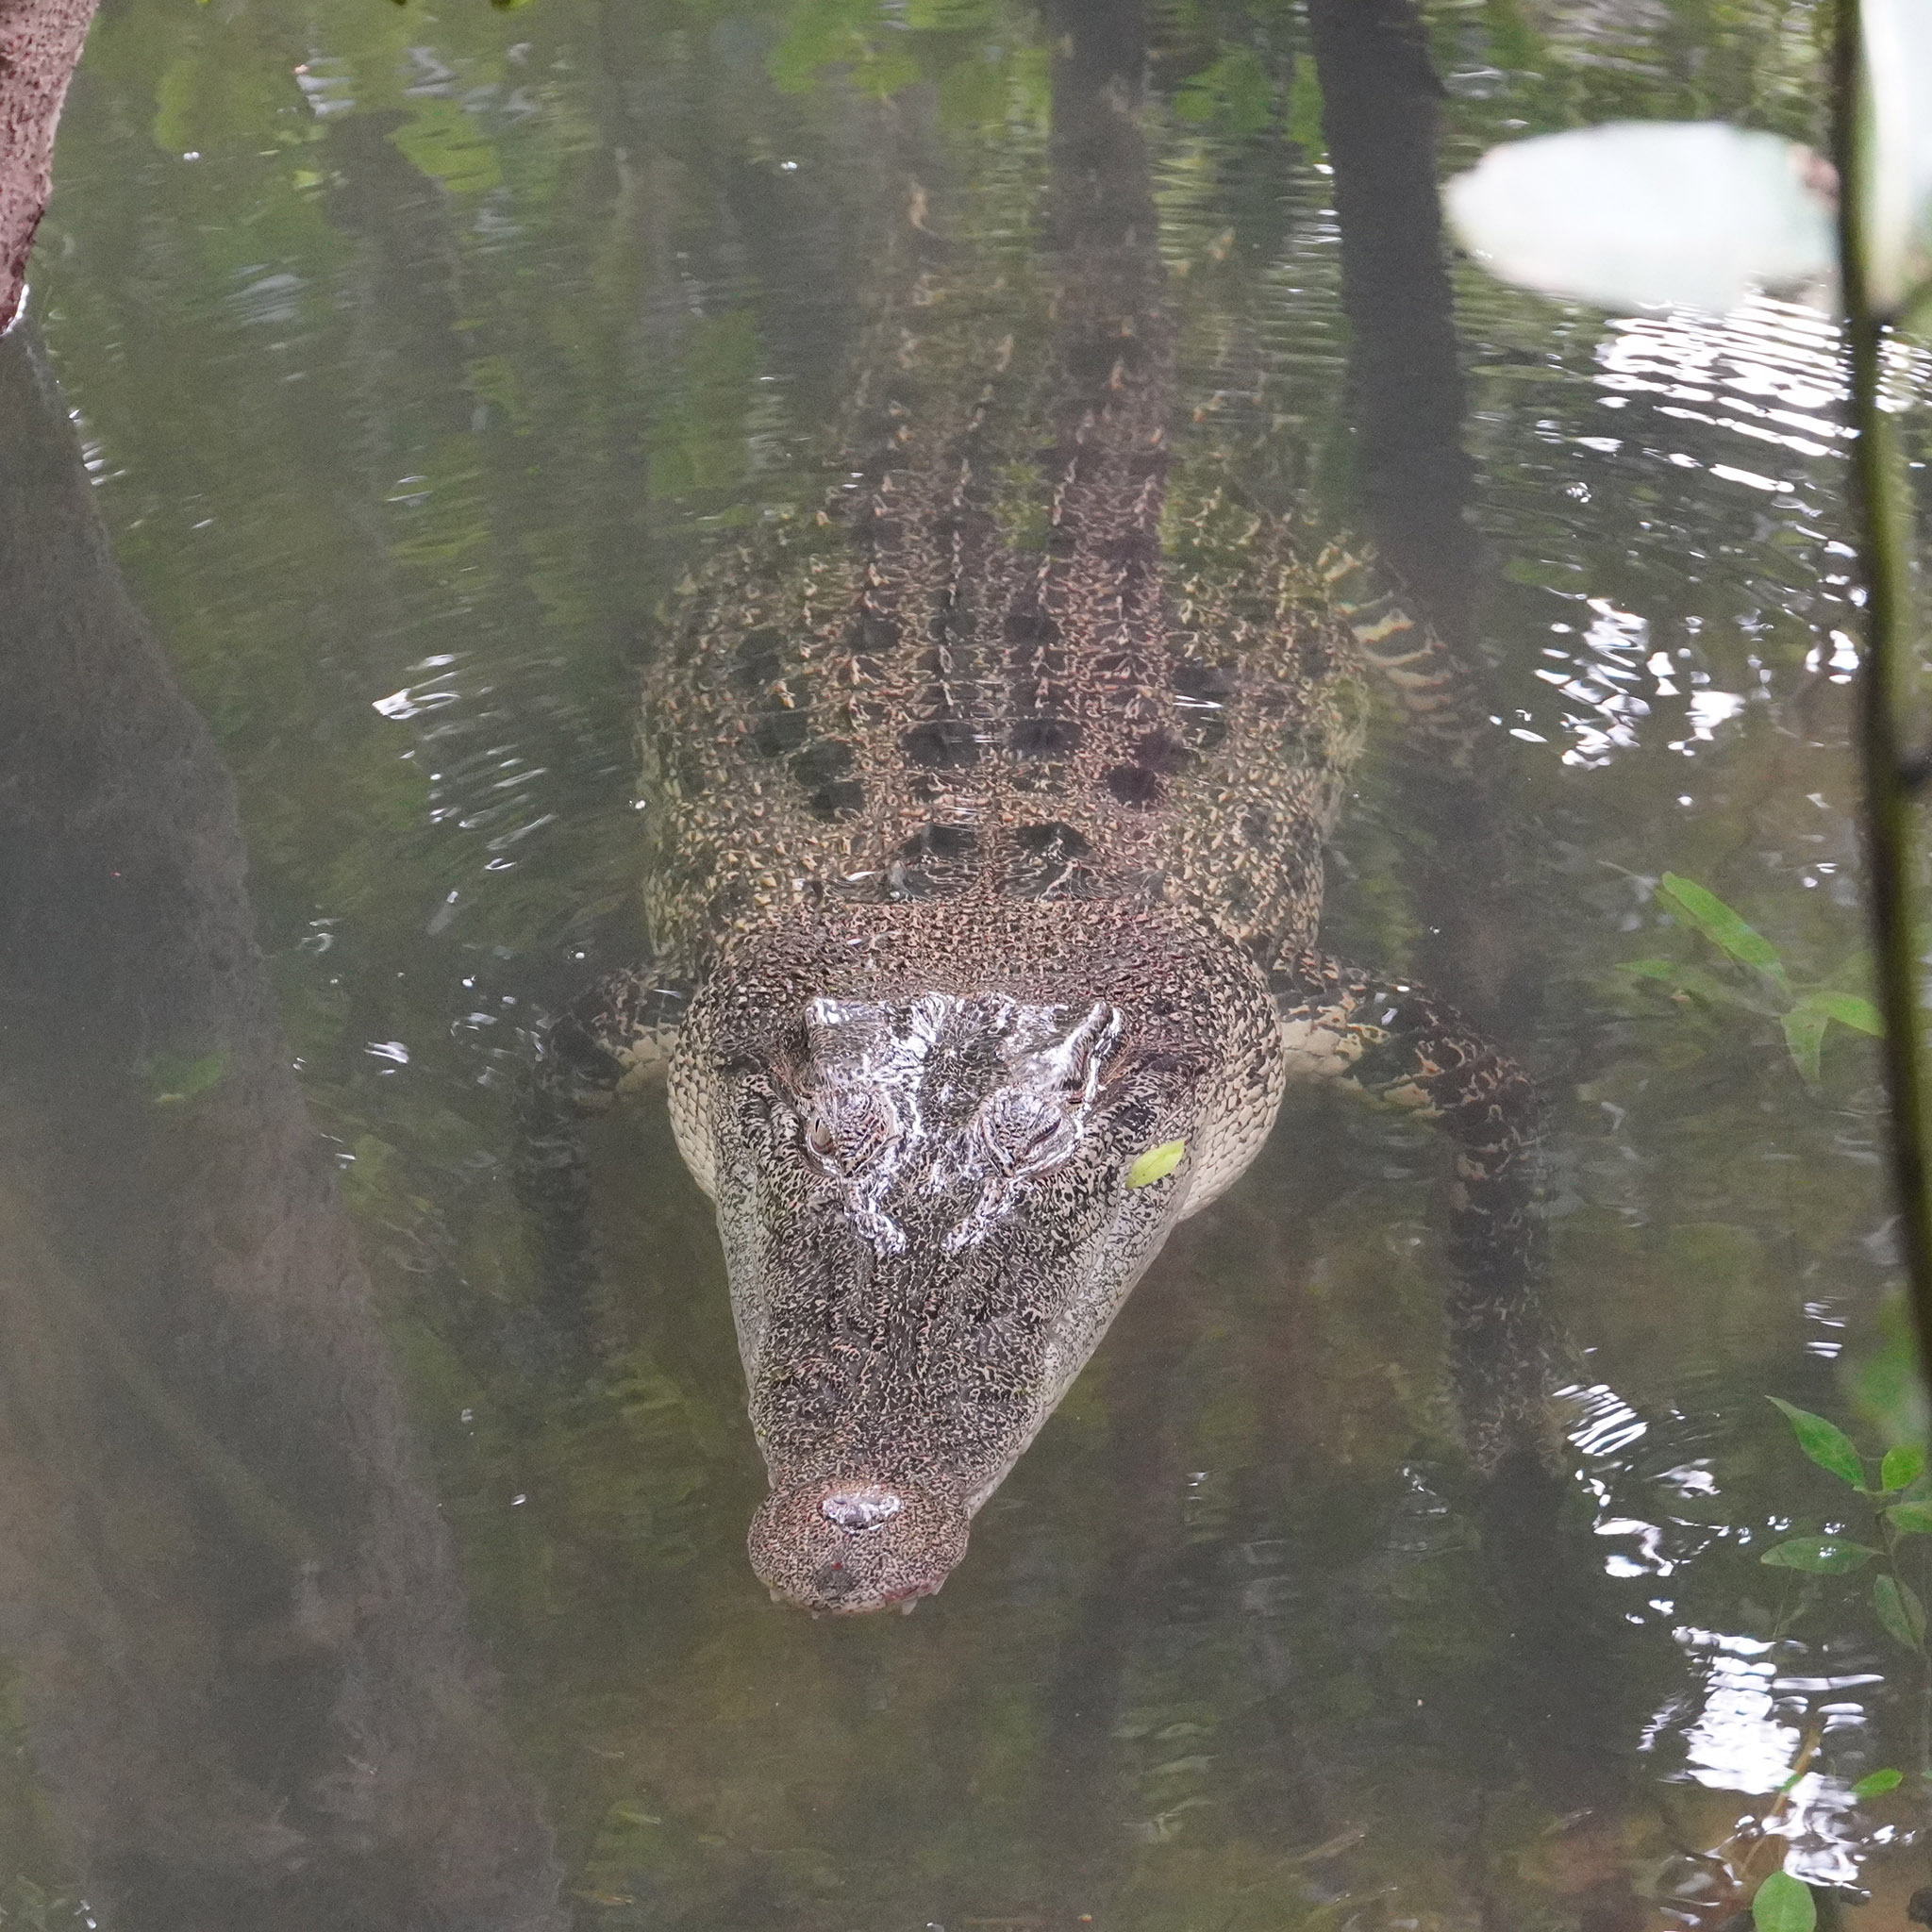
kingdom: Animalia
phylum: Chordata
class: Crocodylia
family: Crocodylidae
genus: Crocodylus
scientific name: Crocodylus porosus
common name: Saltwater crocodile
